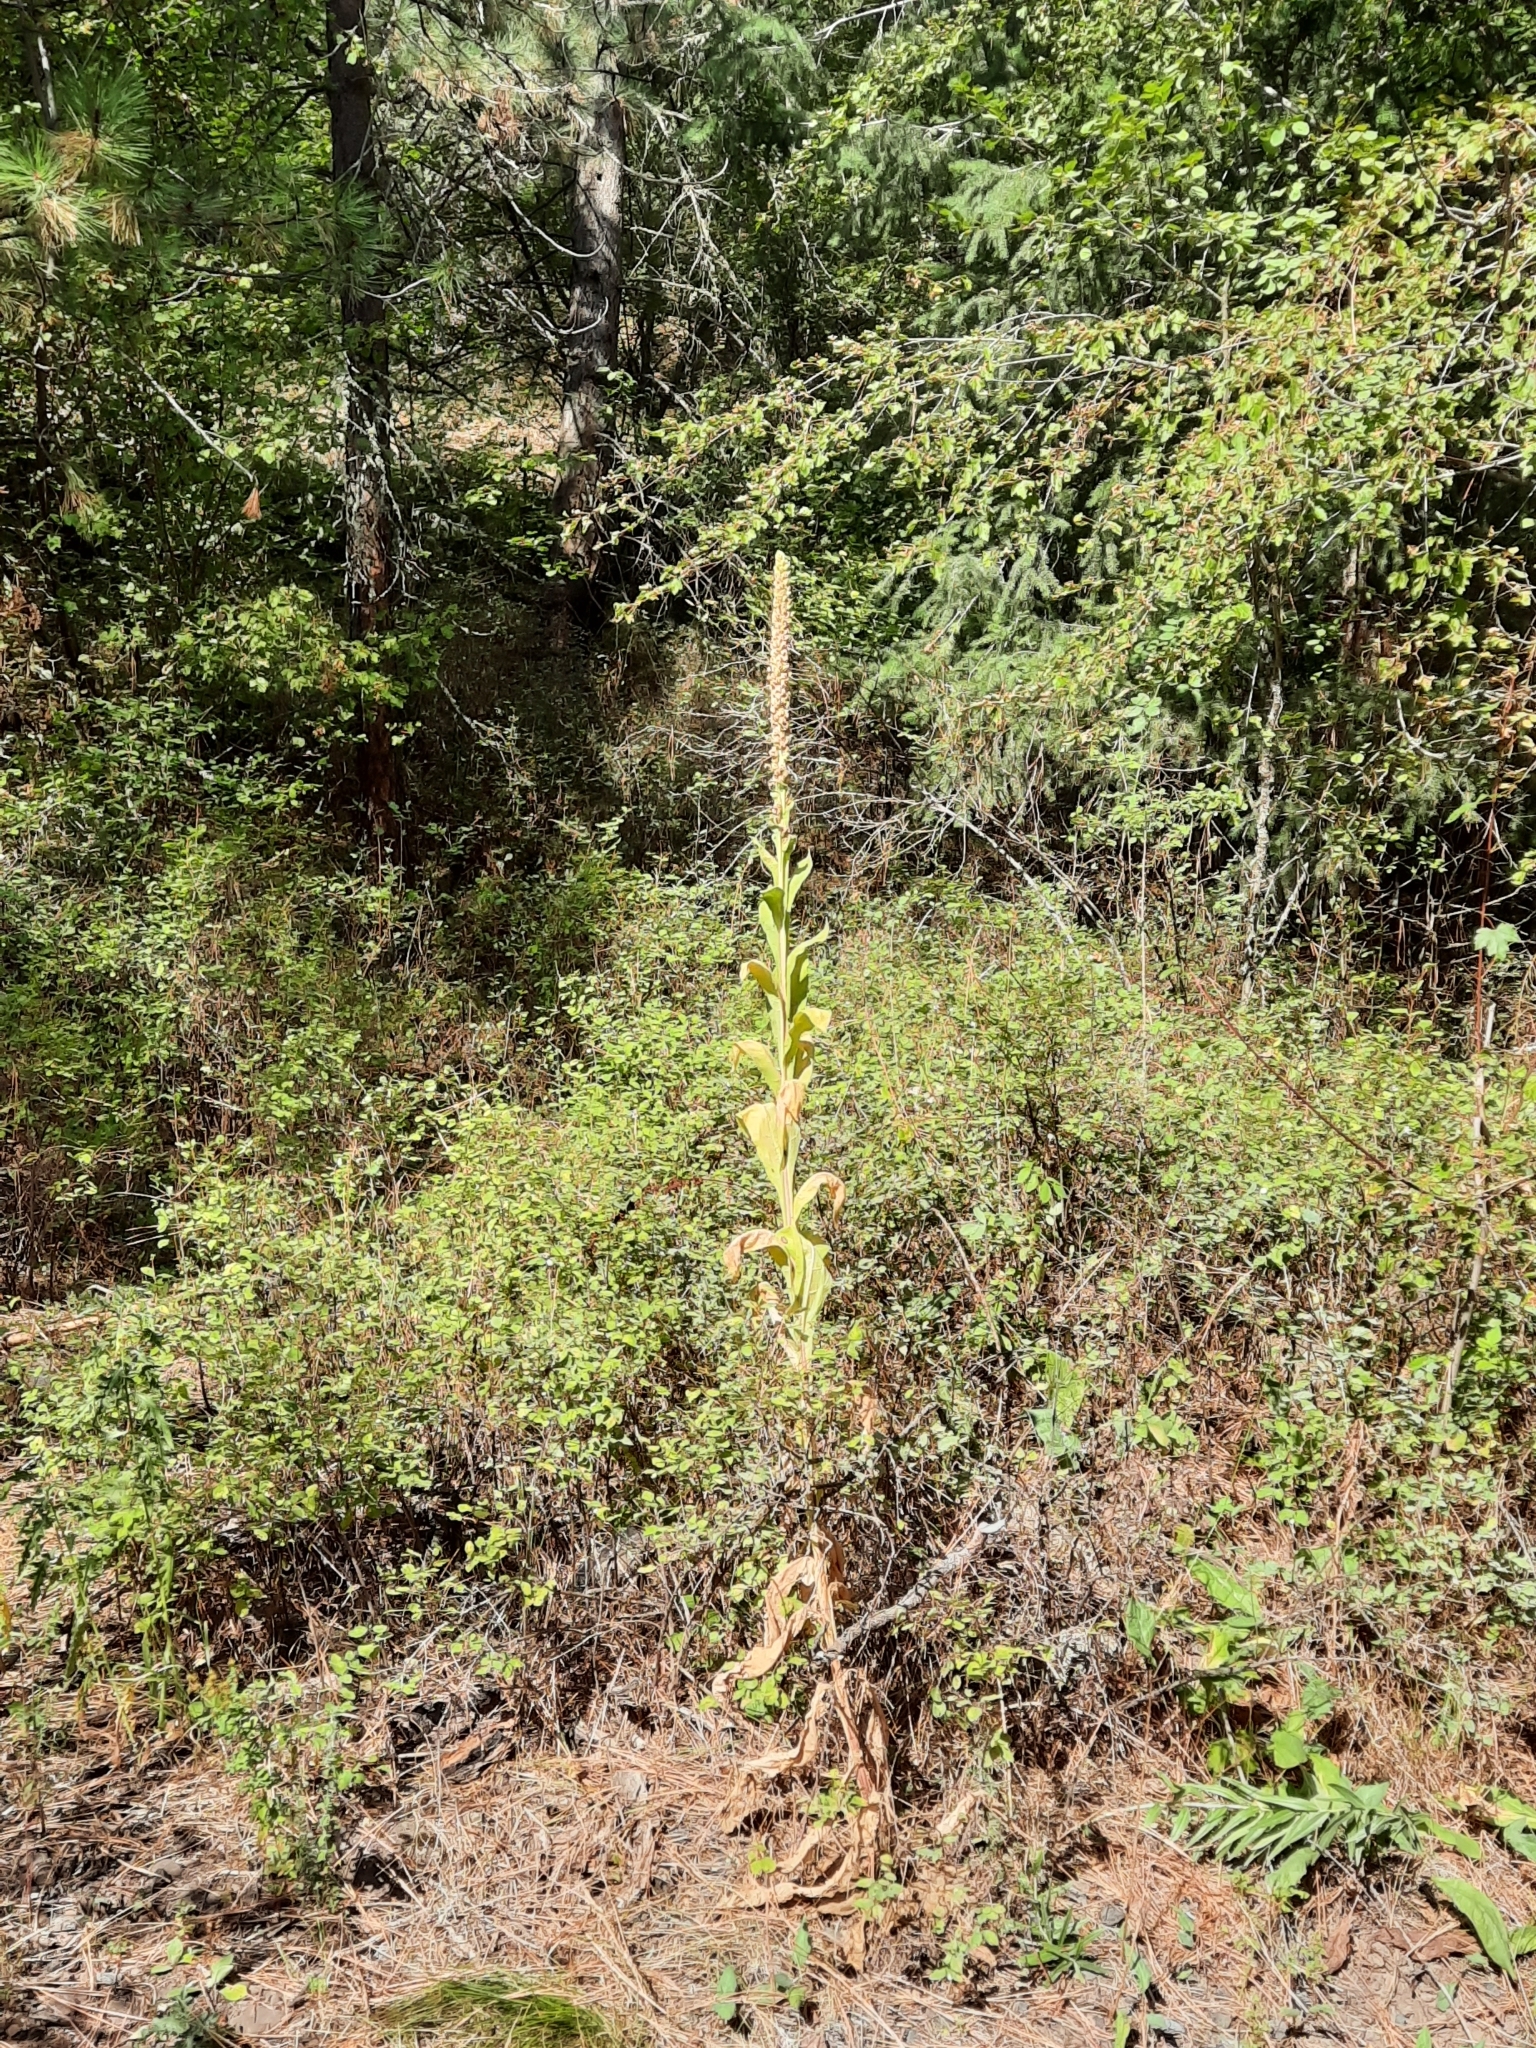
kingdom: Plantae
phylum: Tracheophyta
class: Magnoliopsida
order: Lamiales
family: Scrophulariaceae
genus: Verbascum
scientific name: Verbascum thapsus
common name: Common mullein
